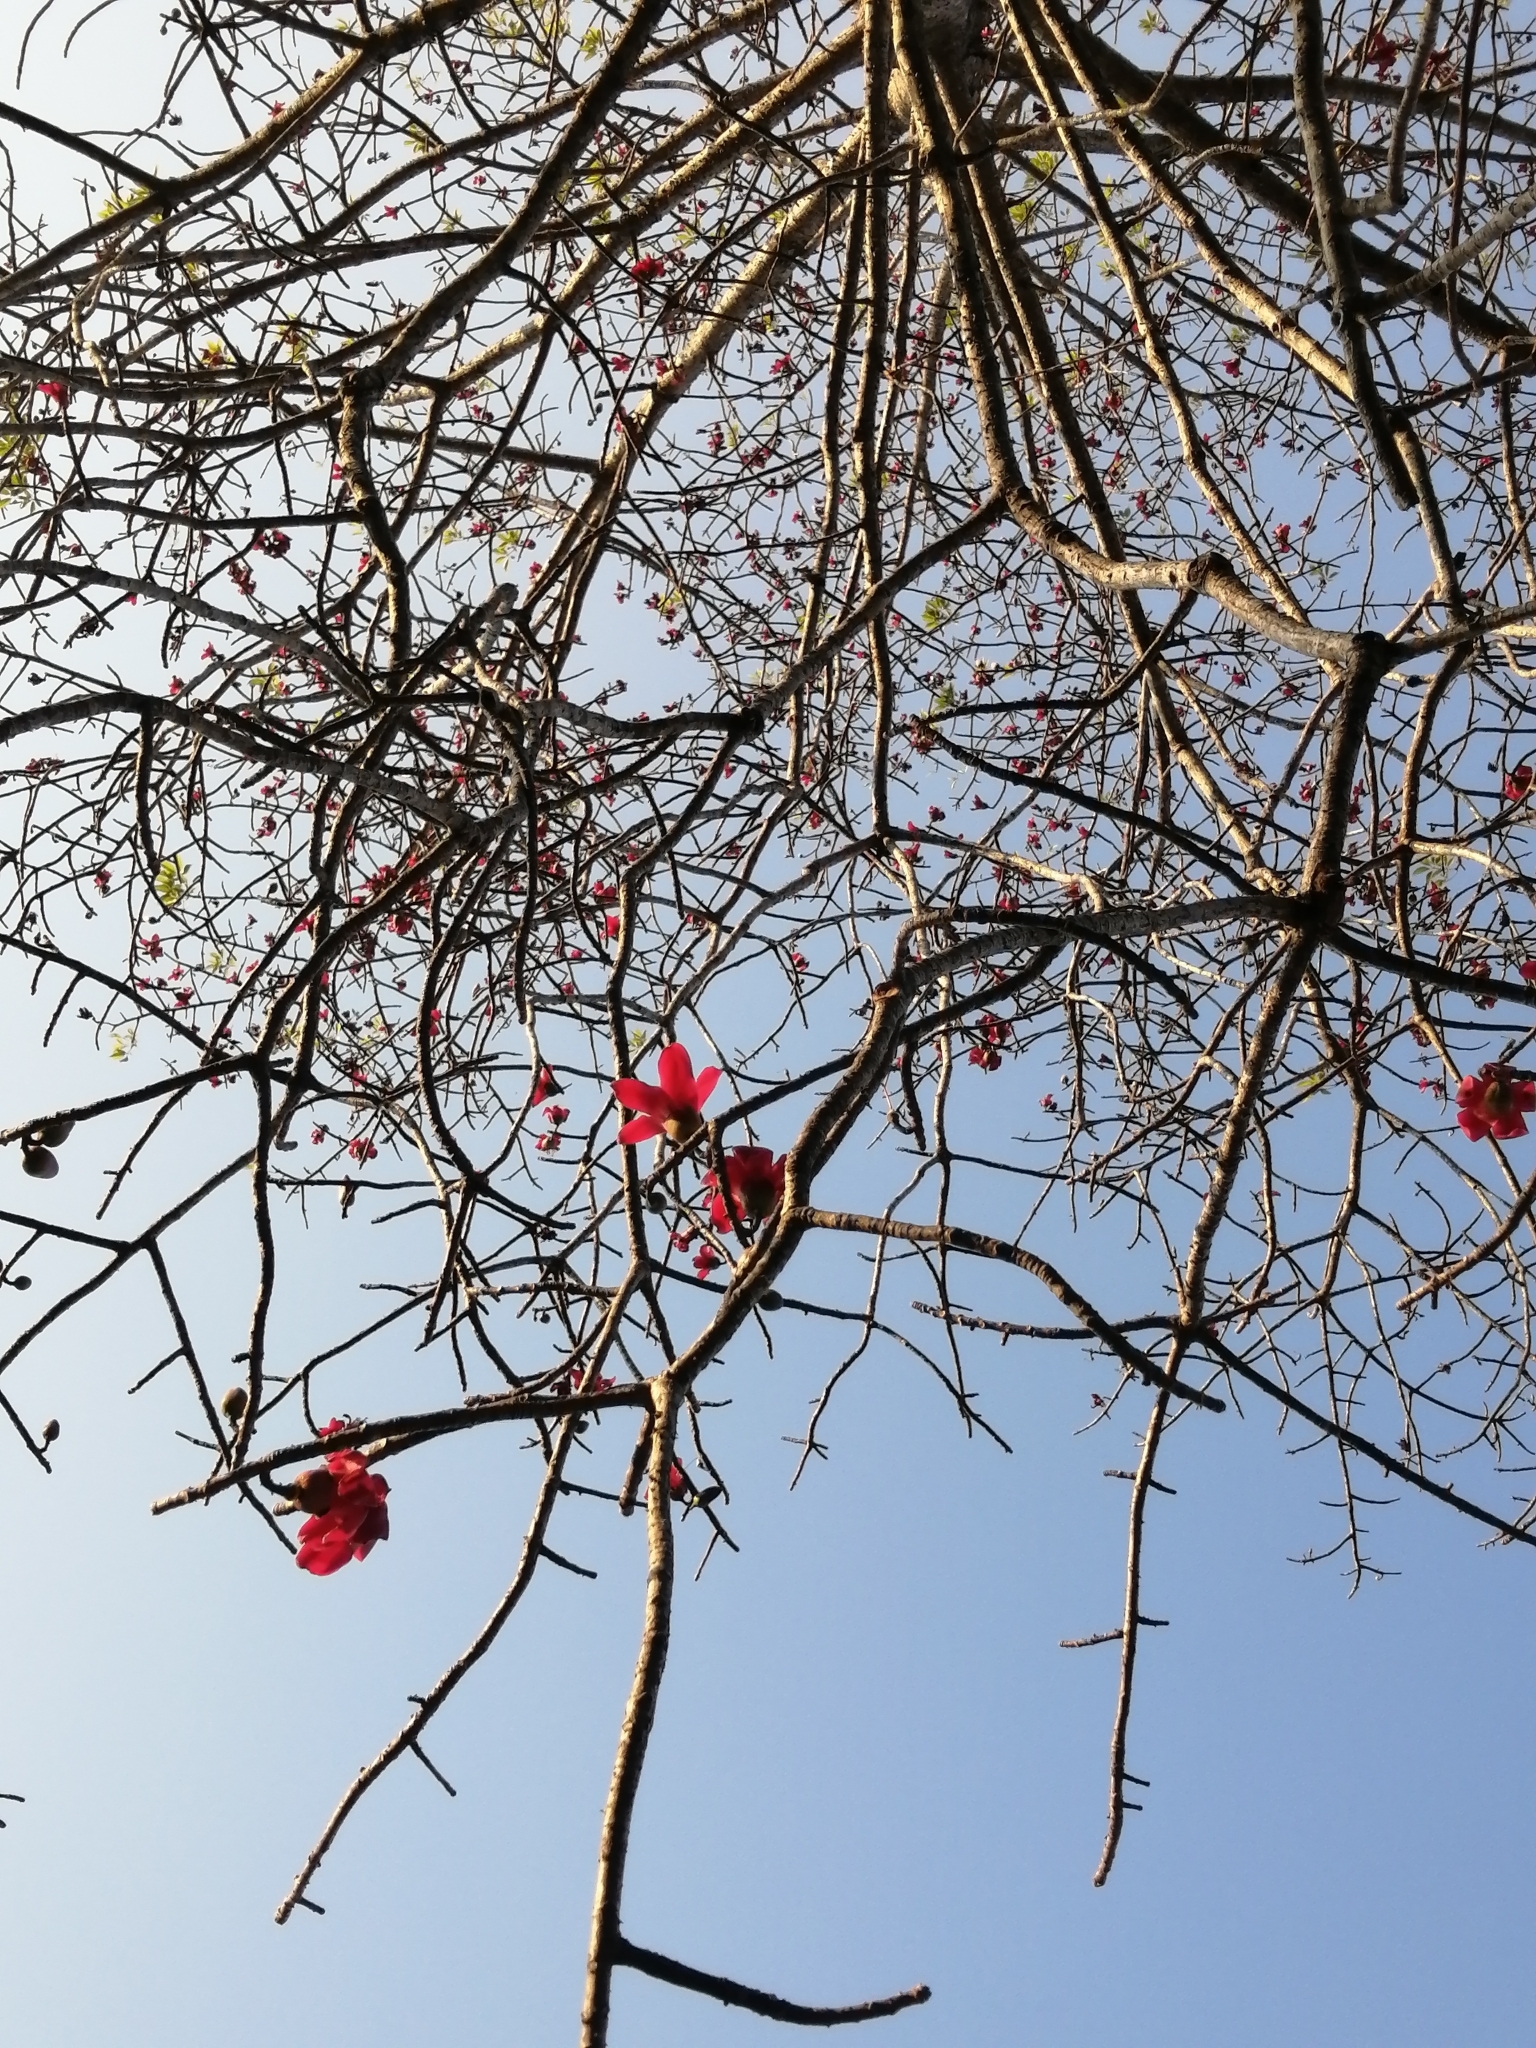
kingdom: Plantae
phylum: Tracheophyta
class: Magnoliopsida
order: Malvales
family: Malvaceae
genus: Bombax
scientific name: Bombax ceiba
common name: Northern-cottonwood
